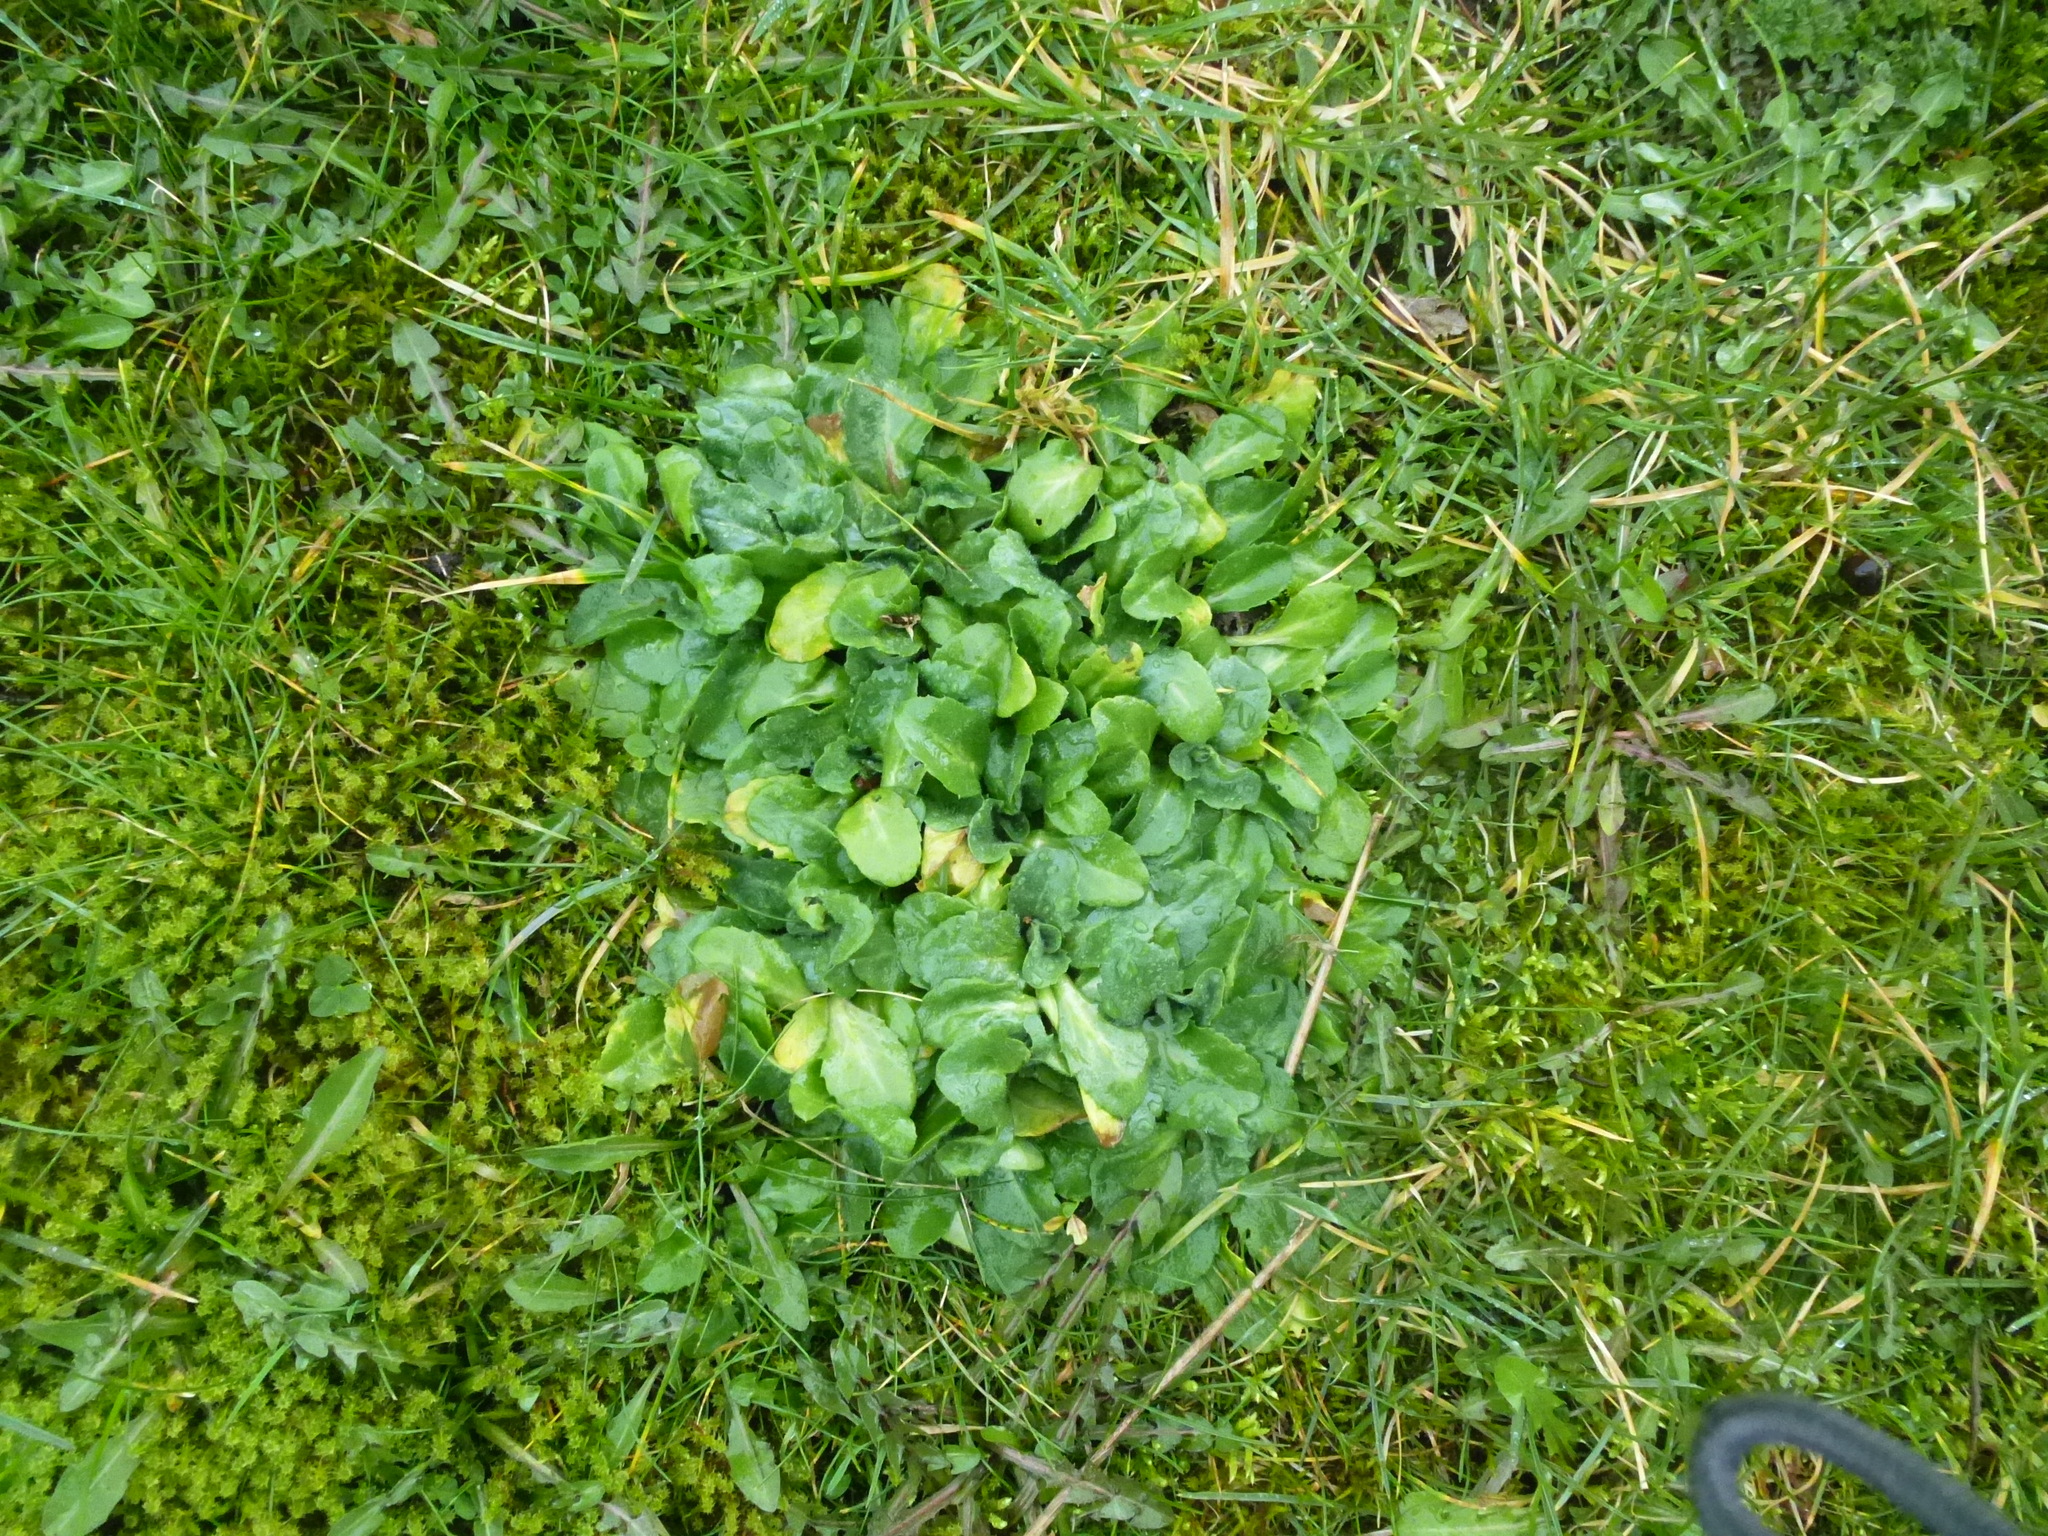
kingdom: Plantae
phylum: Tracheophyta
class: Magnoliopsida
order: Asterales
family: Asteraceae
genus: Bellis
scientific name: Bellis perennis
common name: Lawndaisy
